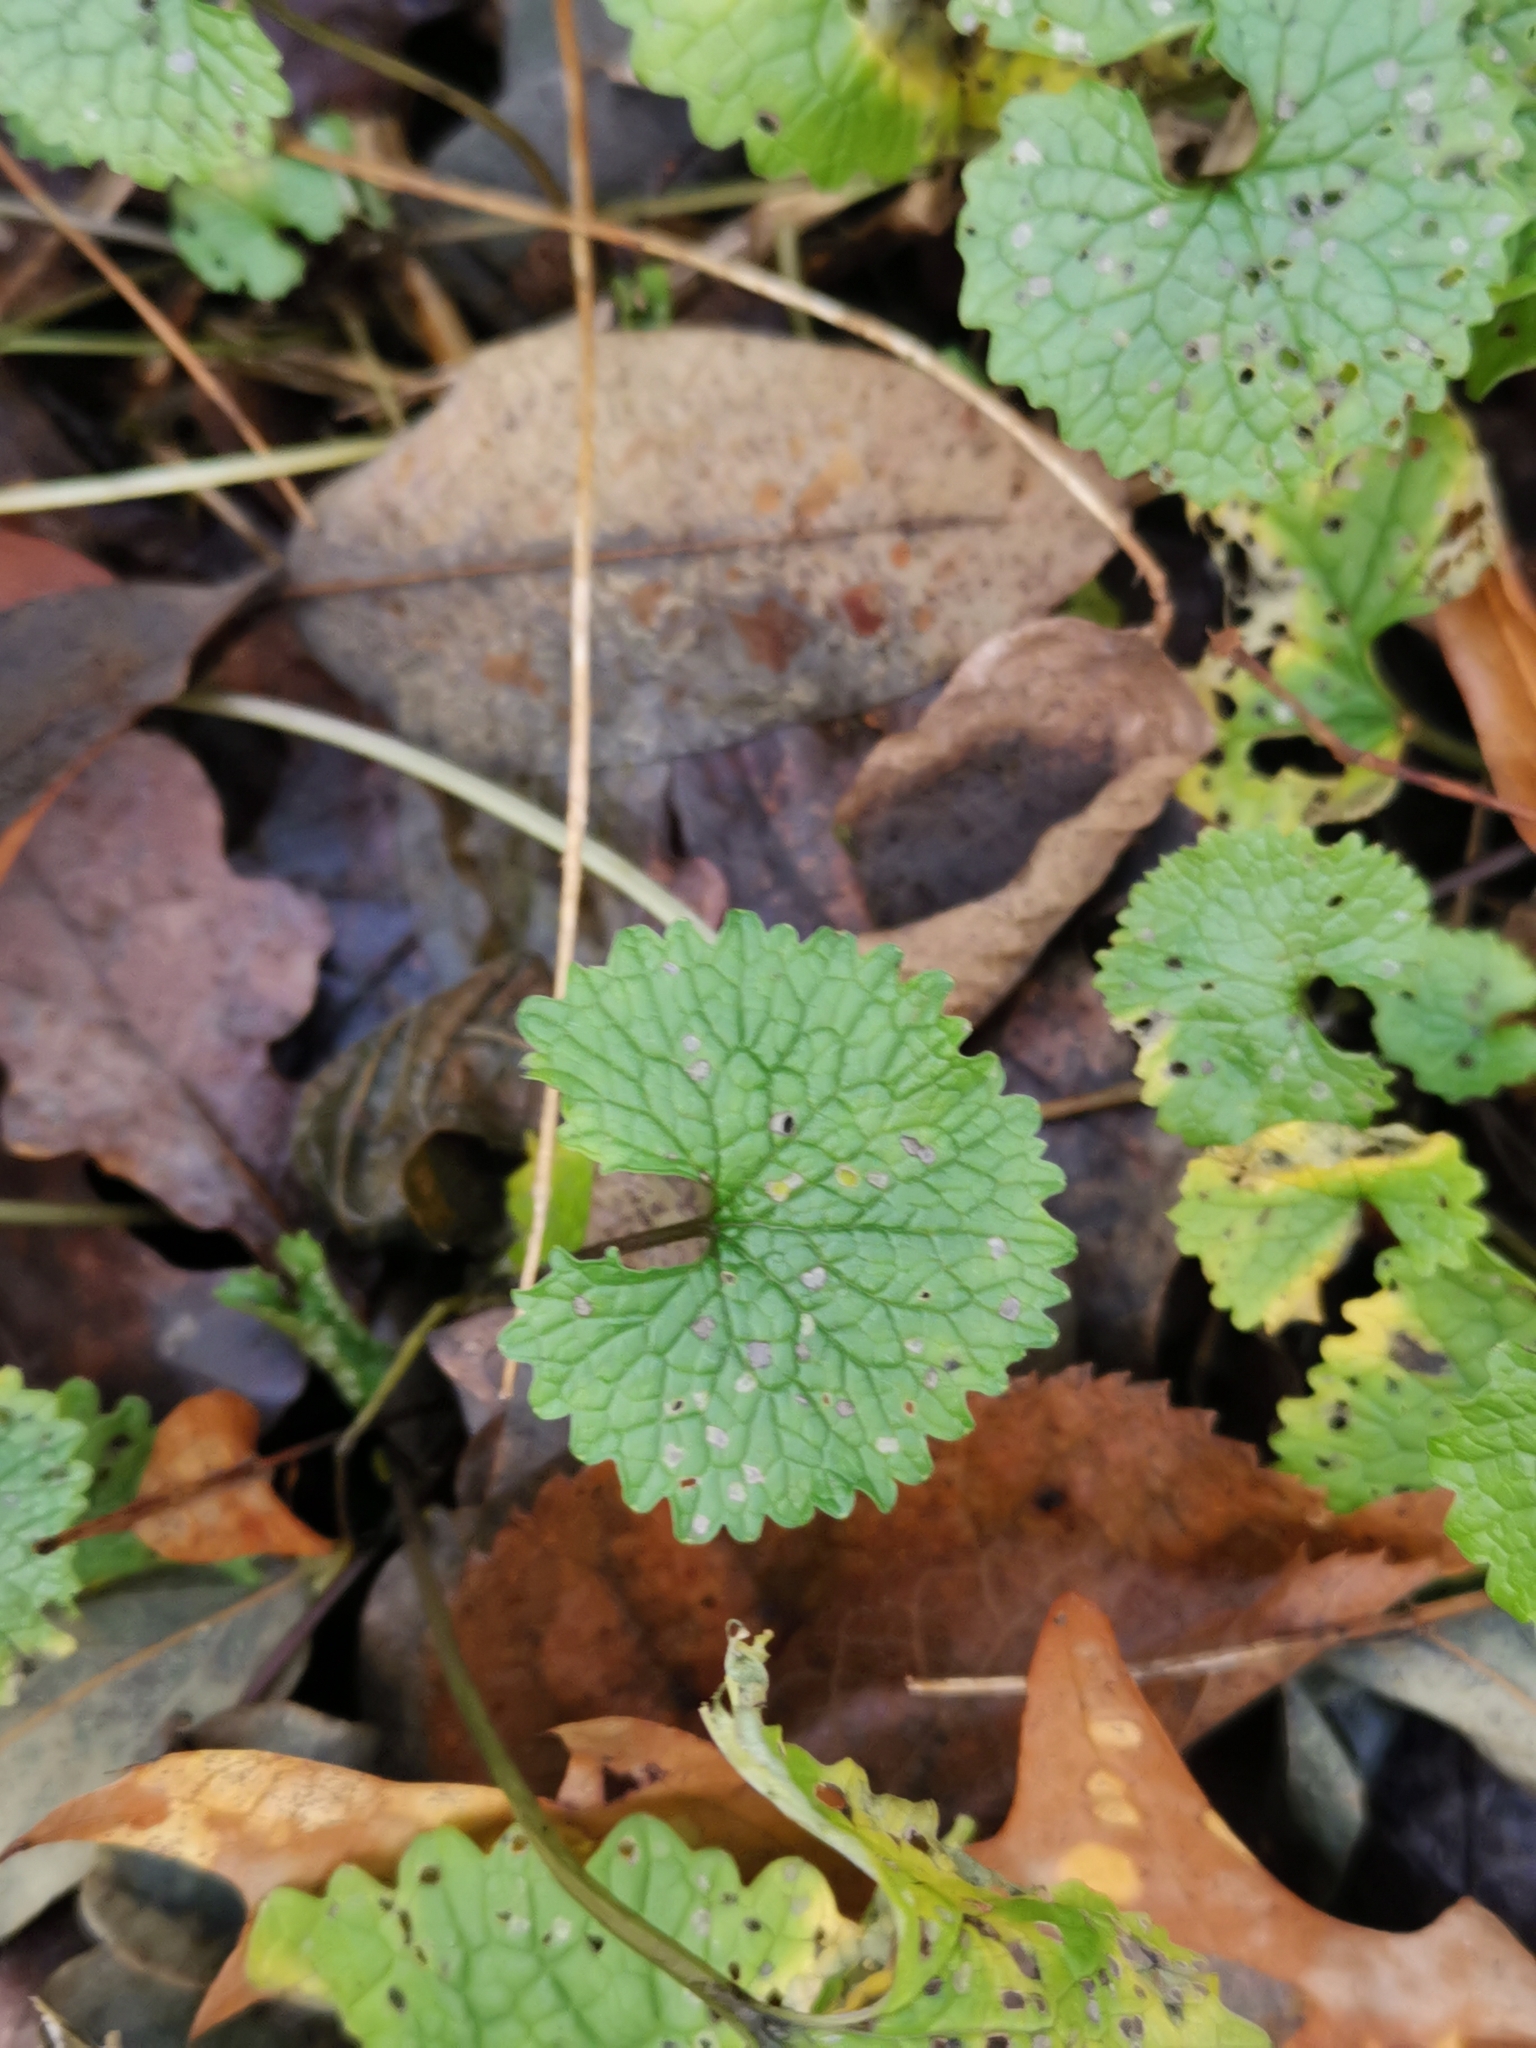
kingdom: Plantae
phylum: Tracheophyta
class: Magnoliopsida
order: Brassicales
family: Brassicaceae
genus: Alliaria
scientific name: Alliaria petiolata
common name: Garlic mustard
